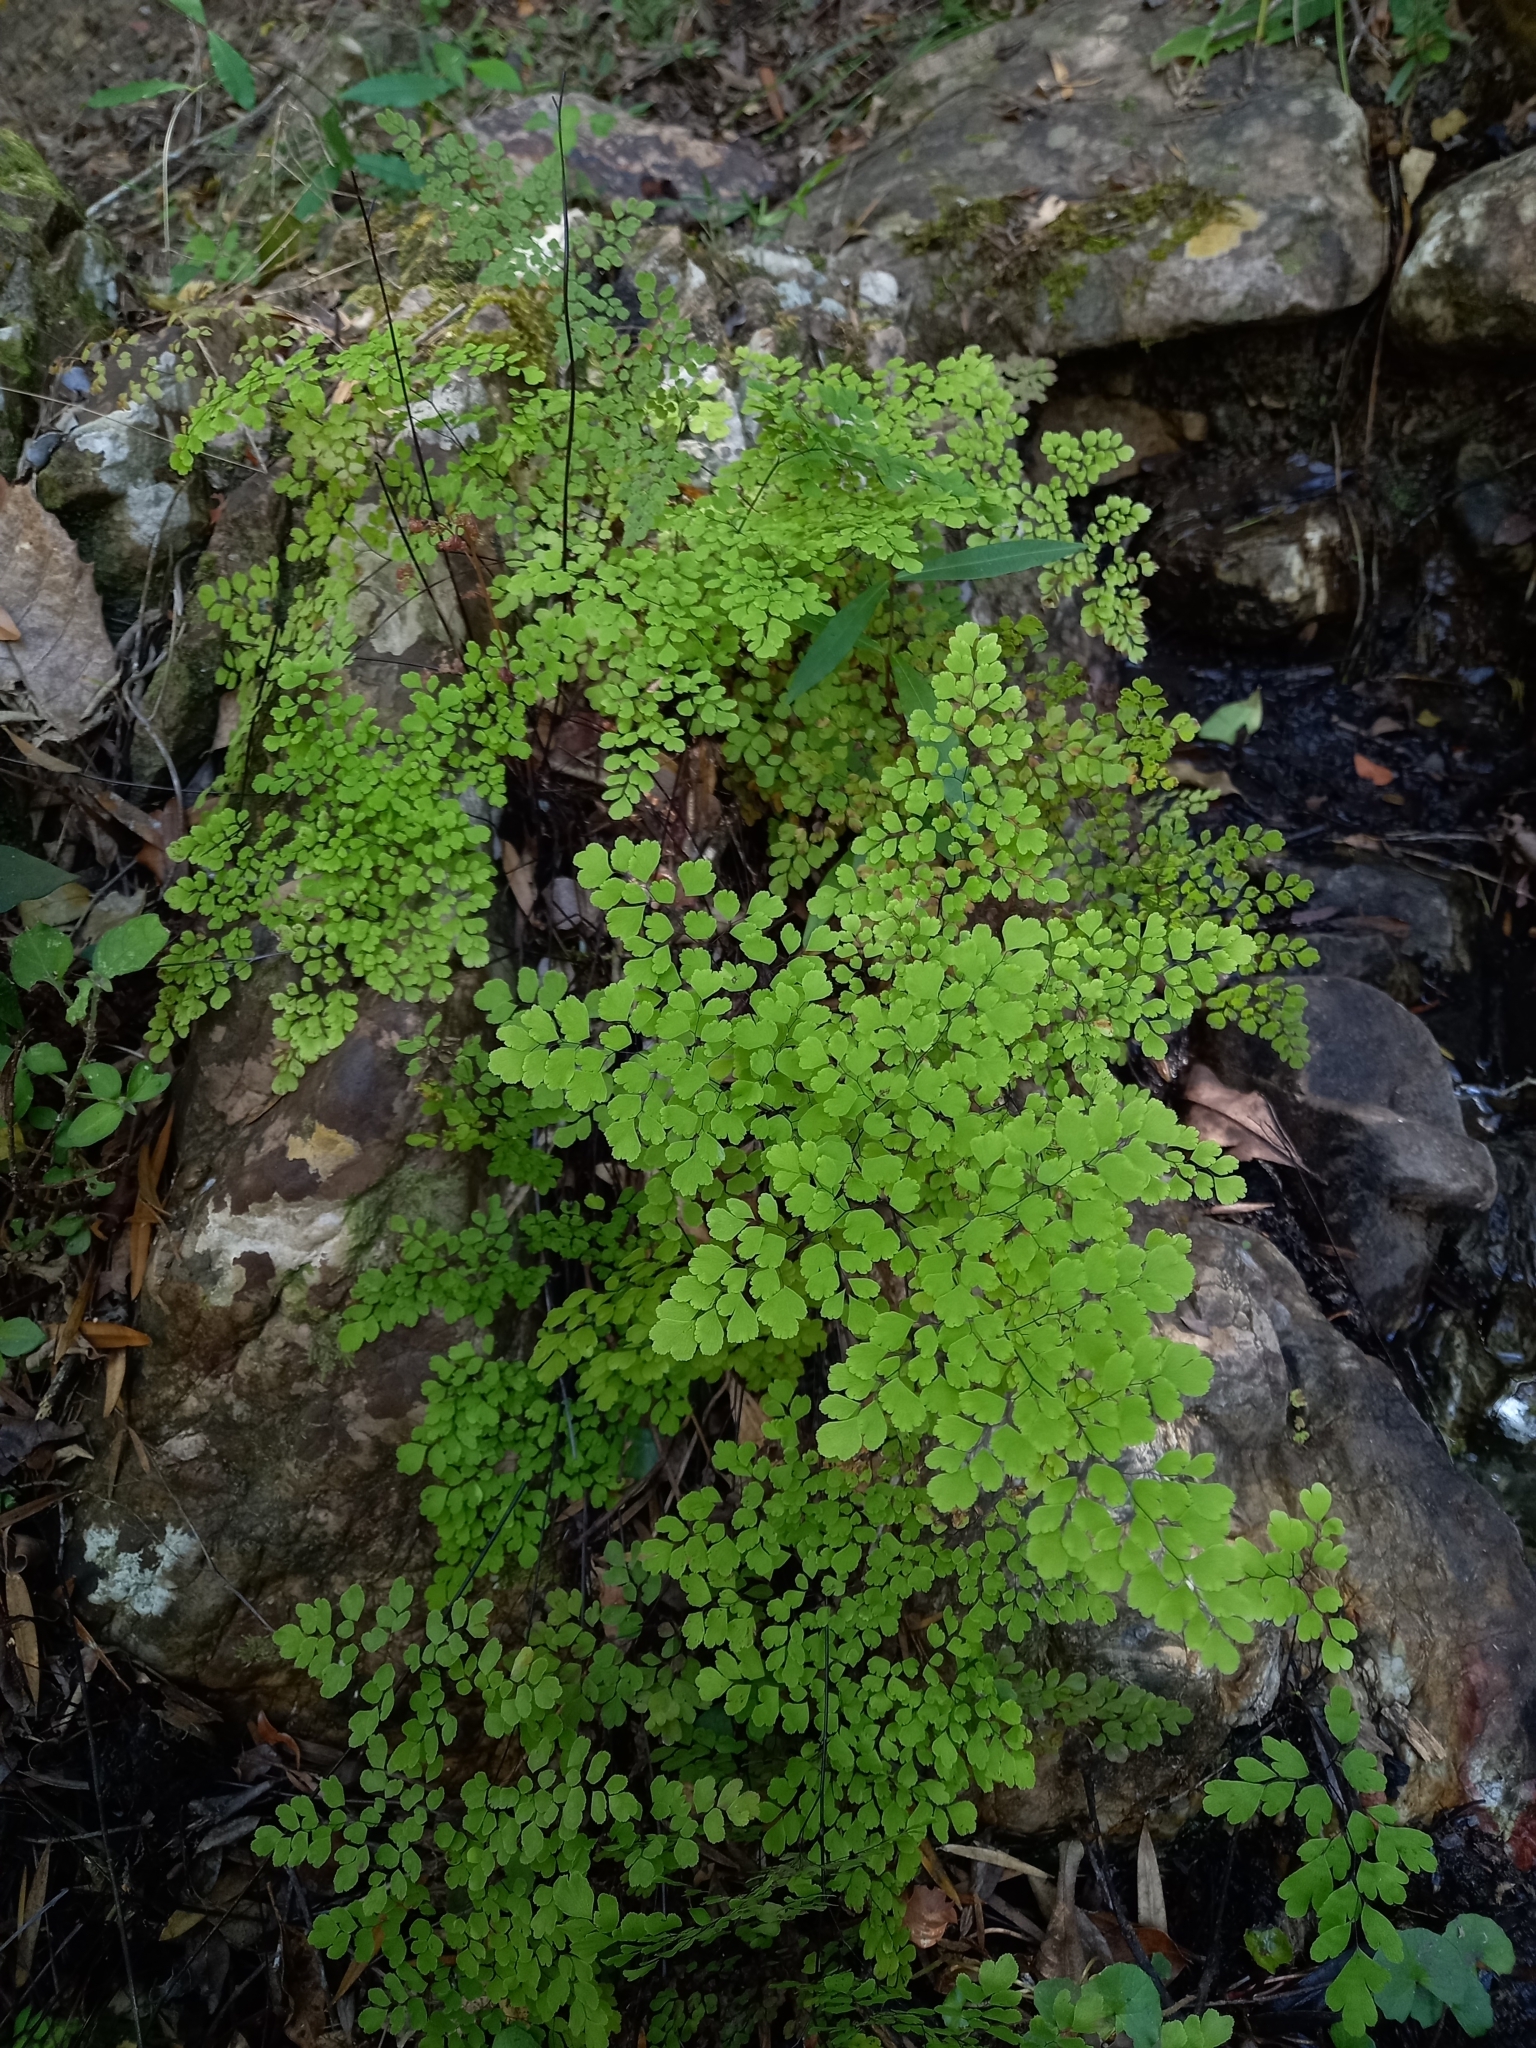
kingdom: Plantae
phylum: Tracheophyta
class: Polypodiopsida
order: Polypodiales
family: Pteridaceae
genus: Adiantum
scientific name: Adiantum raddianum
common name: Delta maidenhair fern
